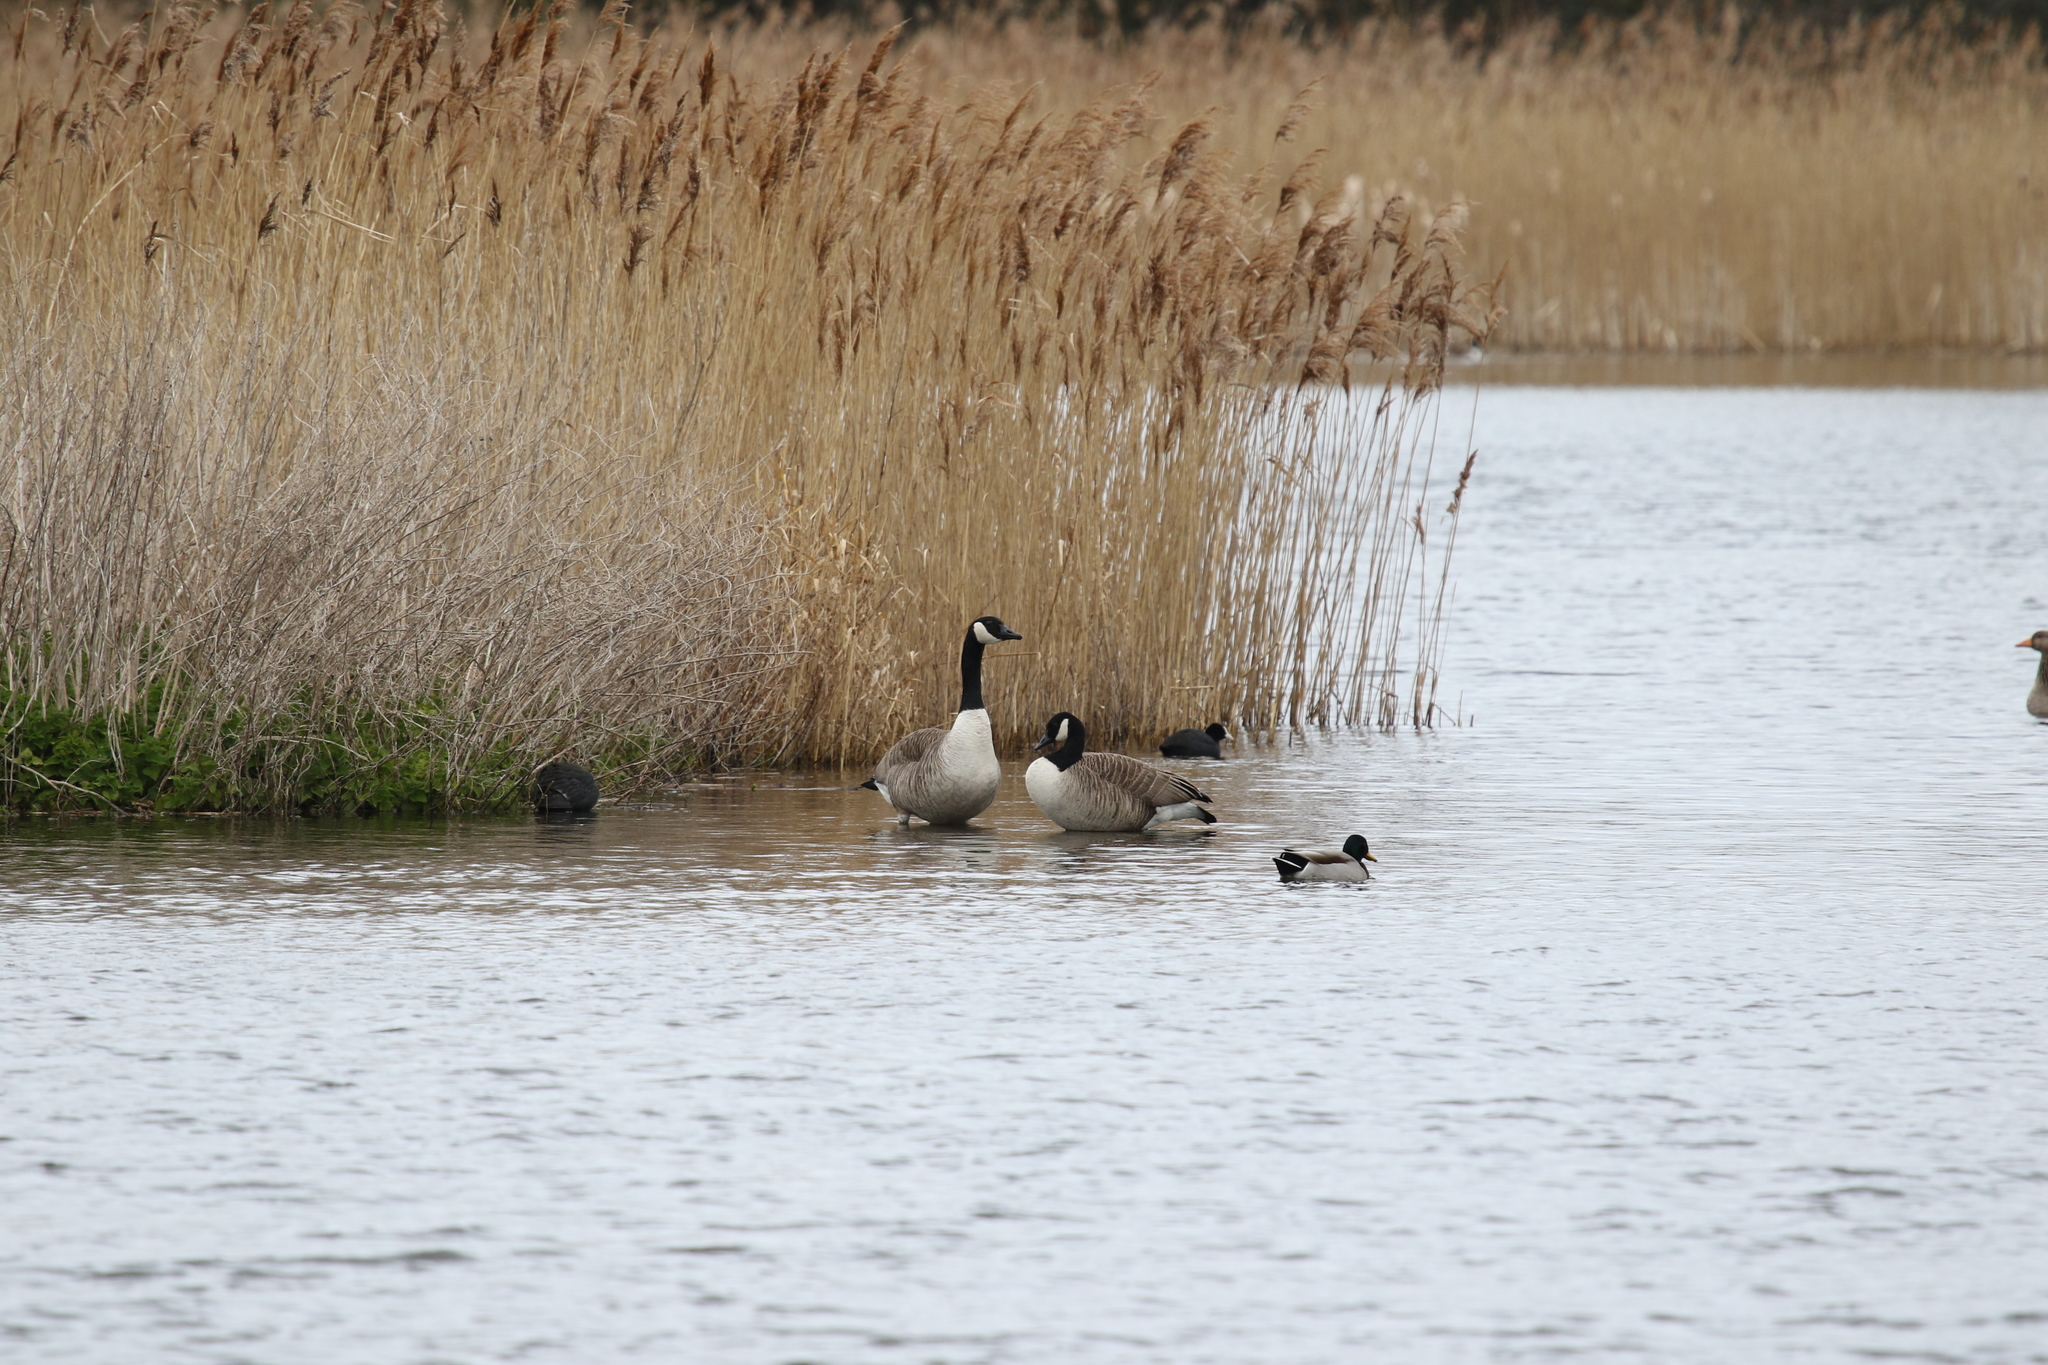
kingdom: Animalia
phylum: Chordata
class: Aves
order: Anseriformes
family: Anatidae
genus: Branta
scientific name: Branta canadensis
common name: Canada goose
